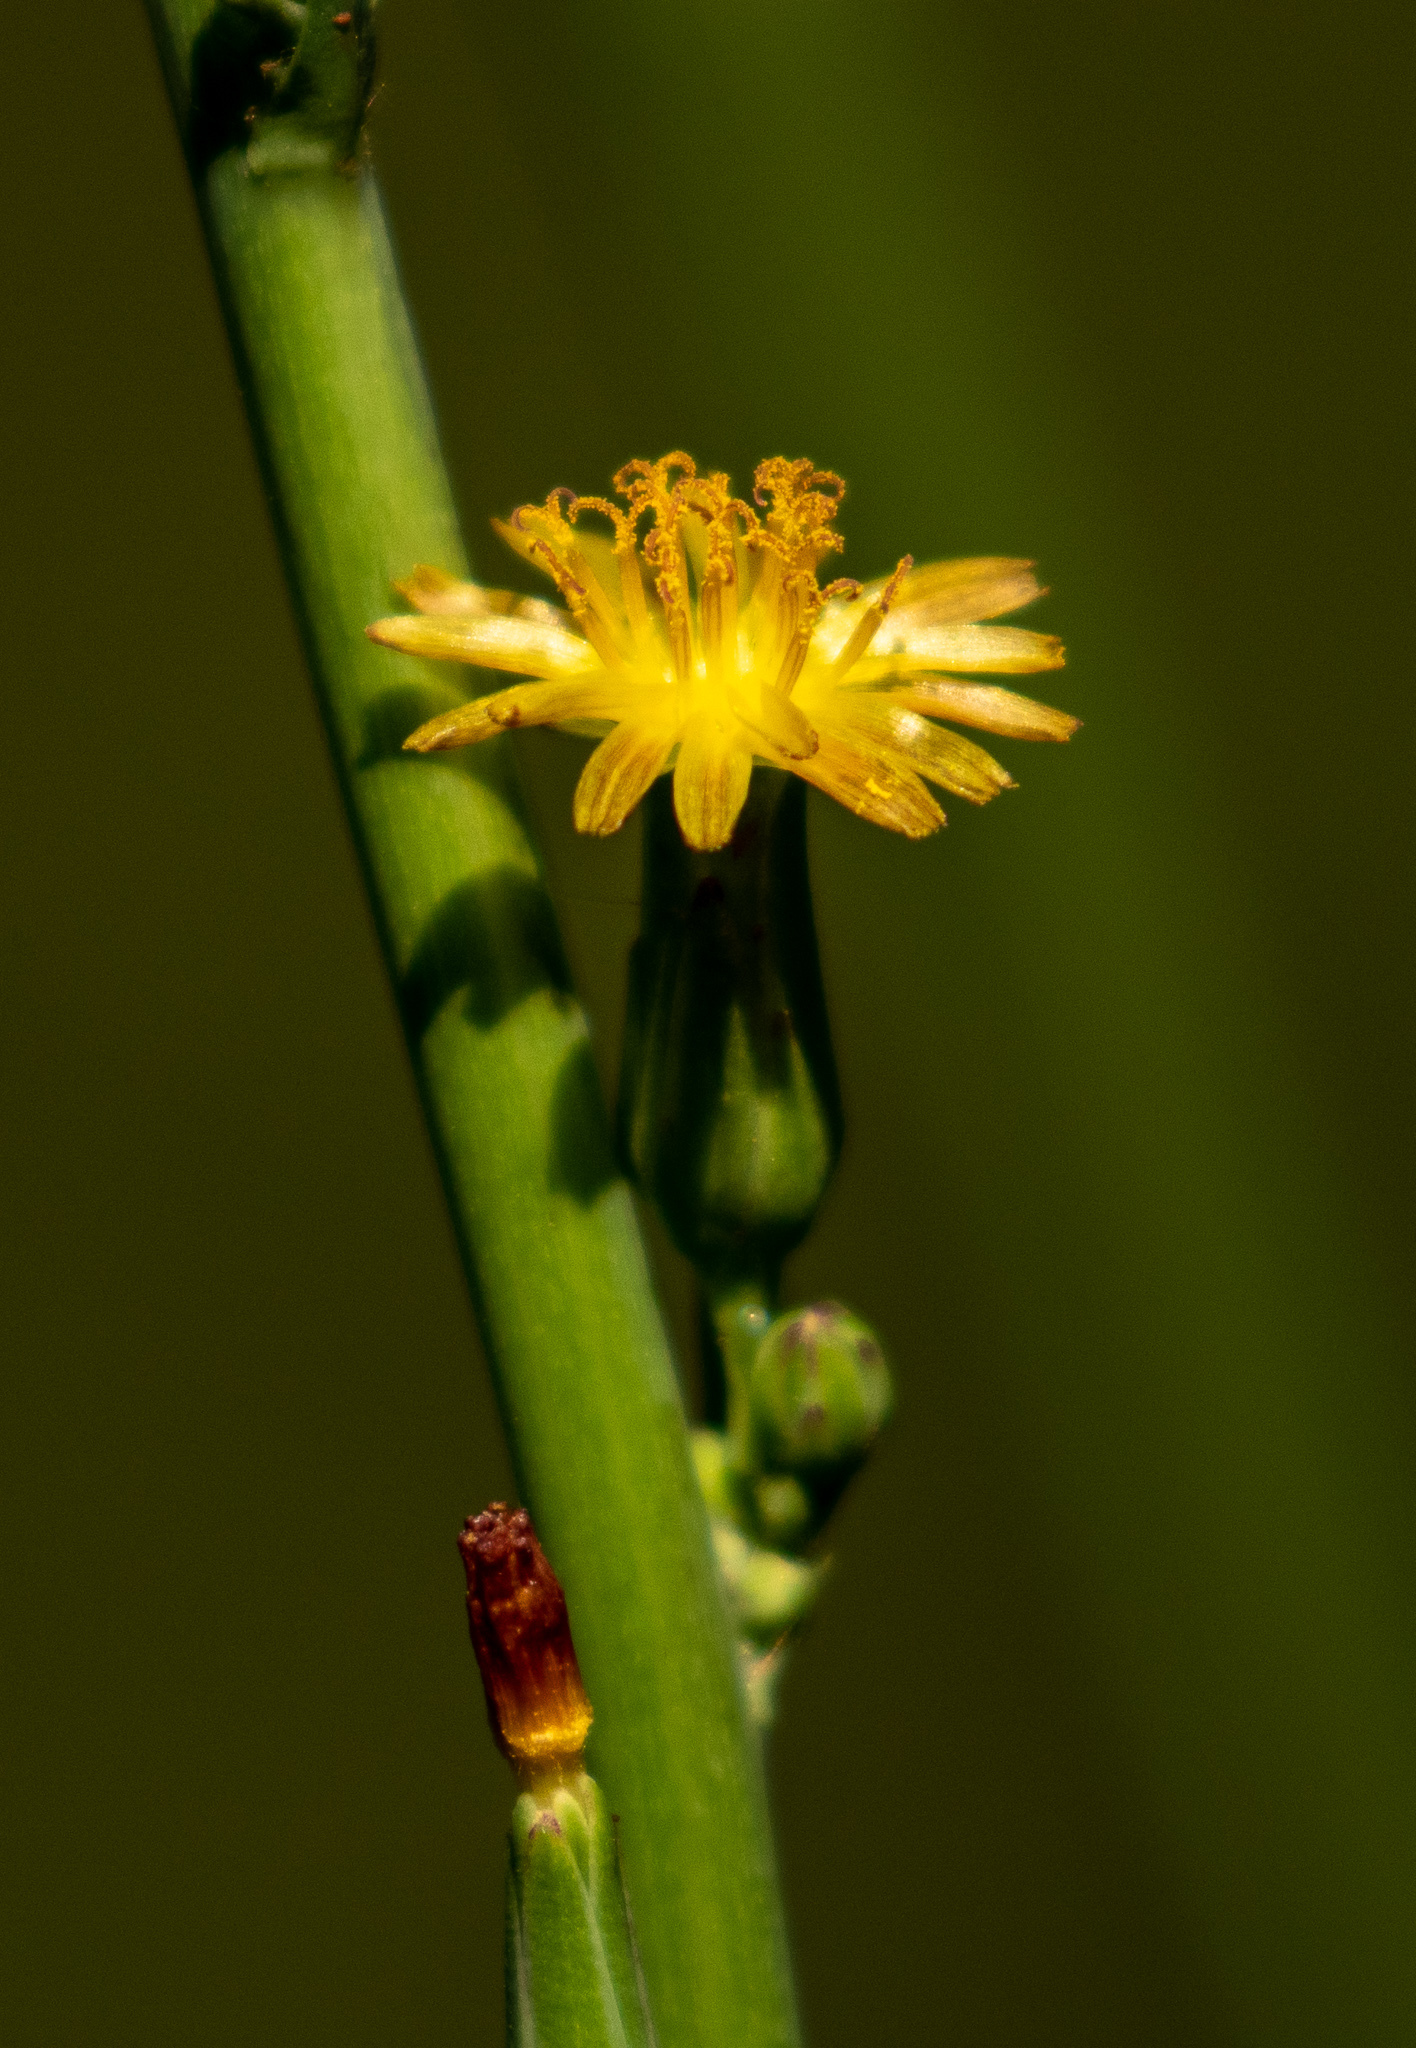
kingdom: Plantae
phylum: Tracheophyta
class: Magnoliopsida
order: Asterales
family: Asteraceae
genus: Lactuca
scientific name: Lactuca canadensis
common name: Canada lettuce
